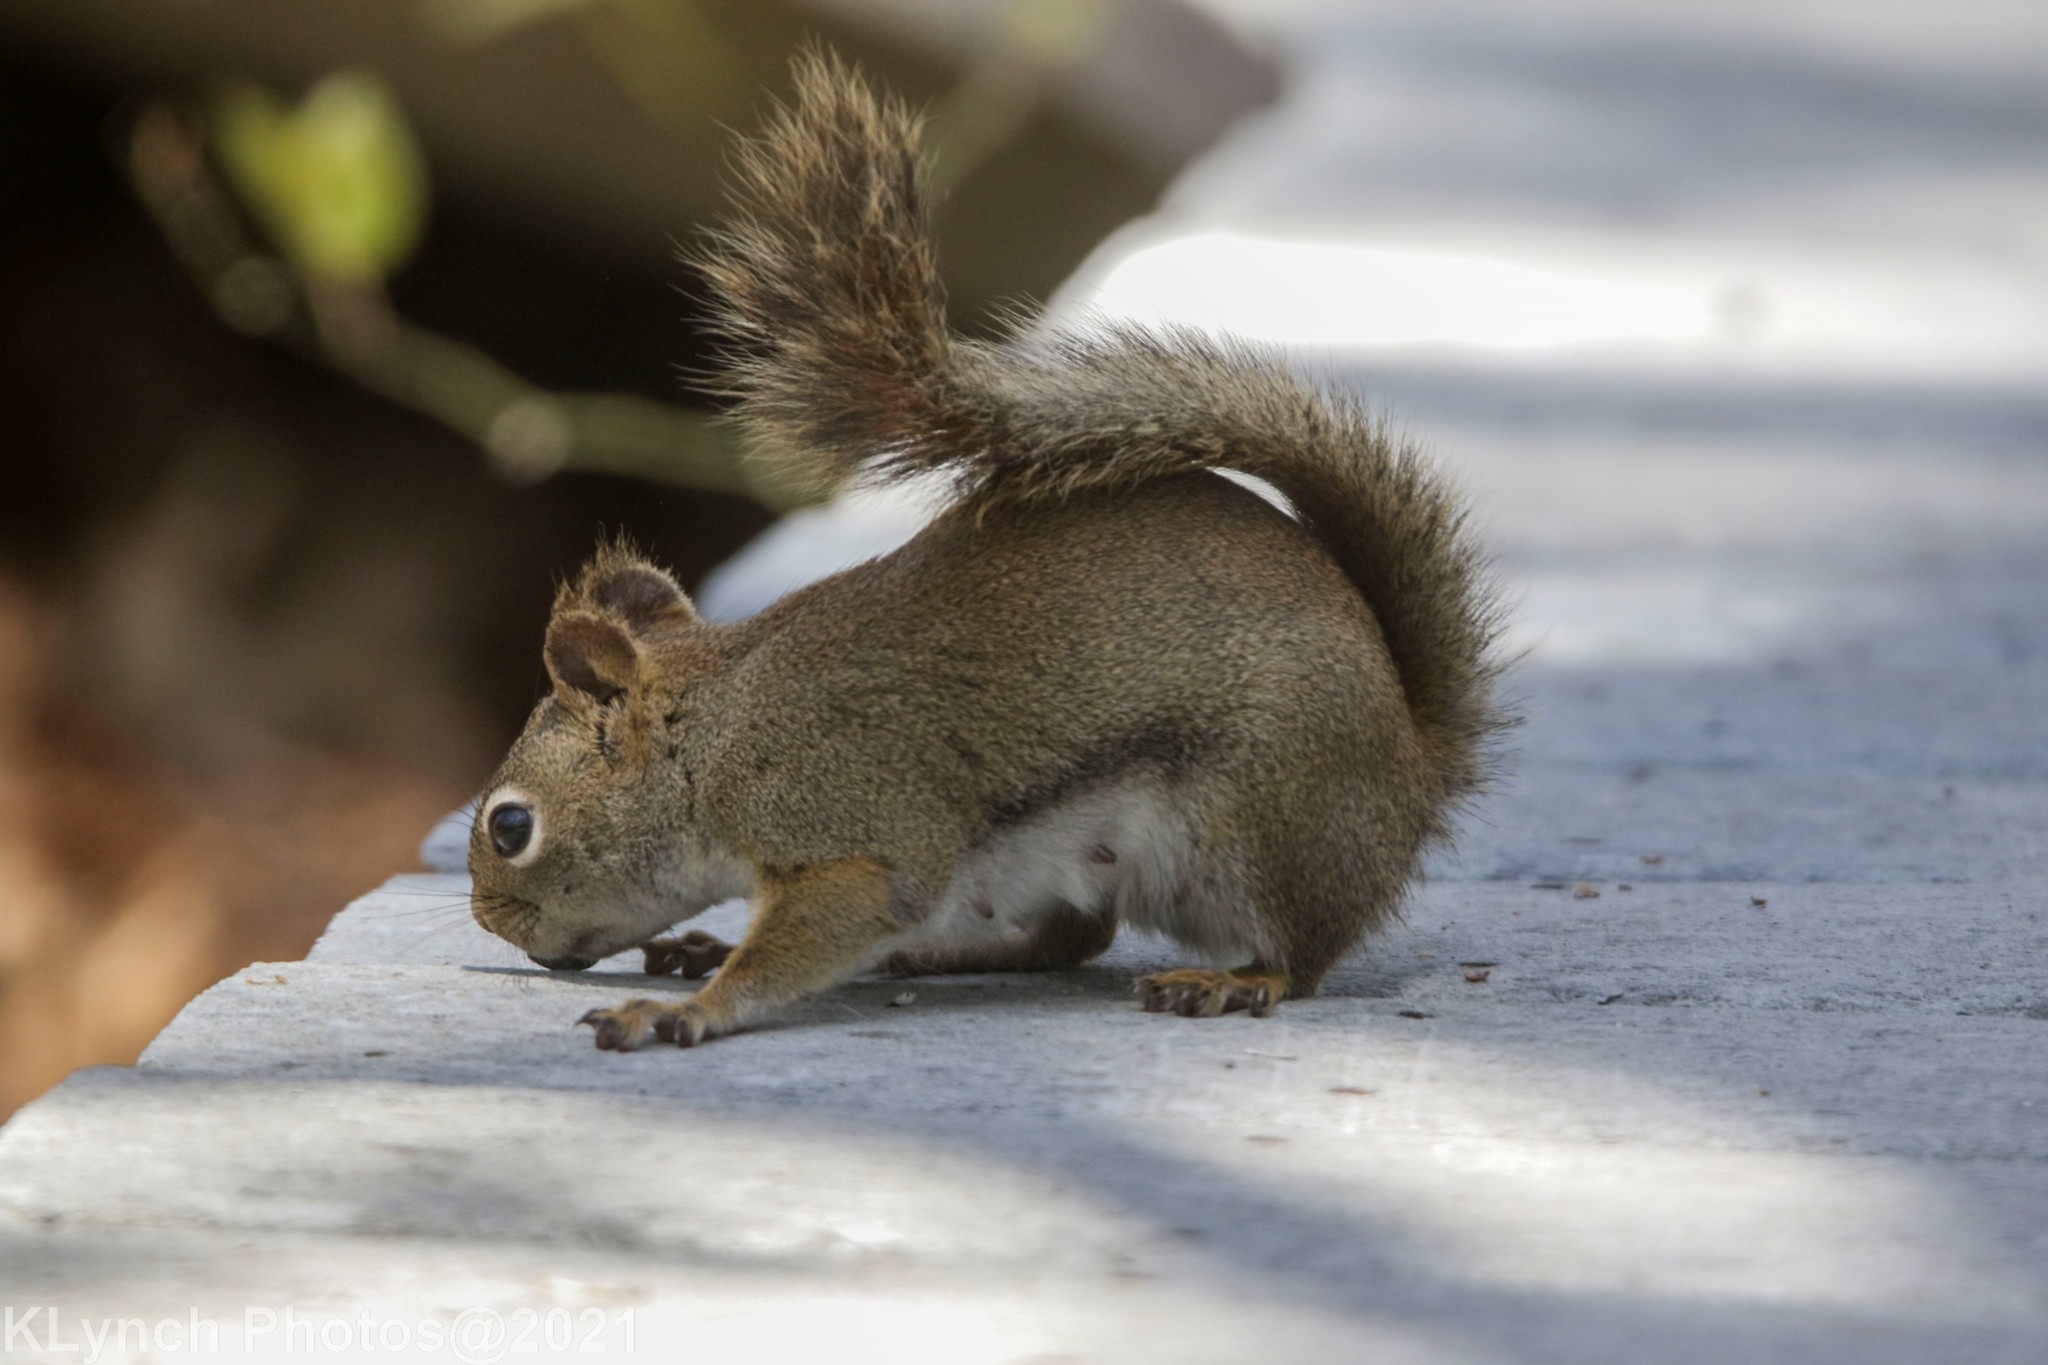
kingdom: Animalia
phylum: Chordata
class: Mammalia
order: Rodentia
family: Sciuridae
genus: Tamiasciurus
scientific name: Tamiasciurus hudsonicus
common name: Red squirrel
